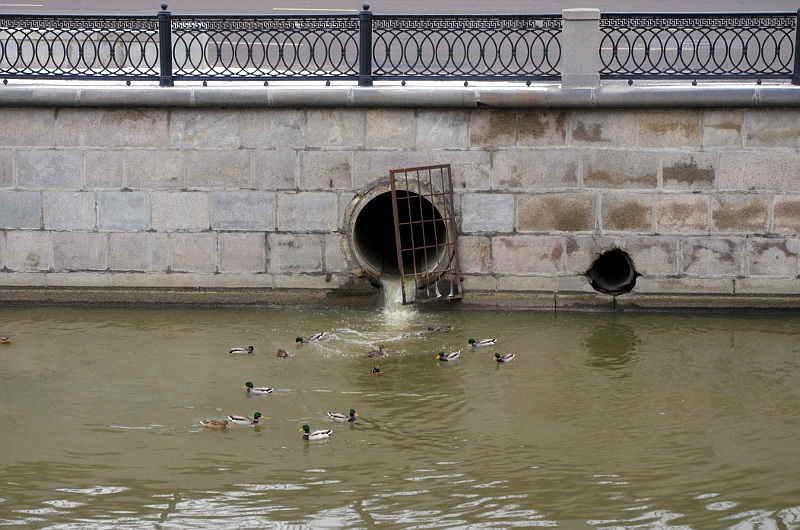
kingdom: Animalia
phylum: Chordata
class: Aves
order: Anseriformes
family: Anatidae
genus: Anas
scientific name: Anas platyrhynchos
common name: Mallard
